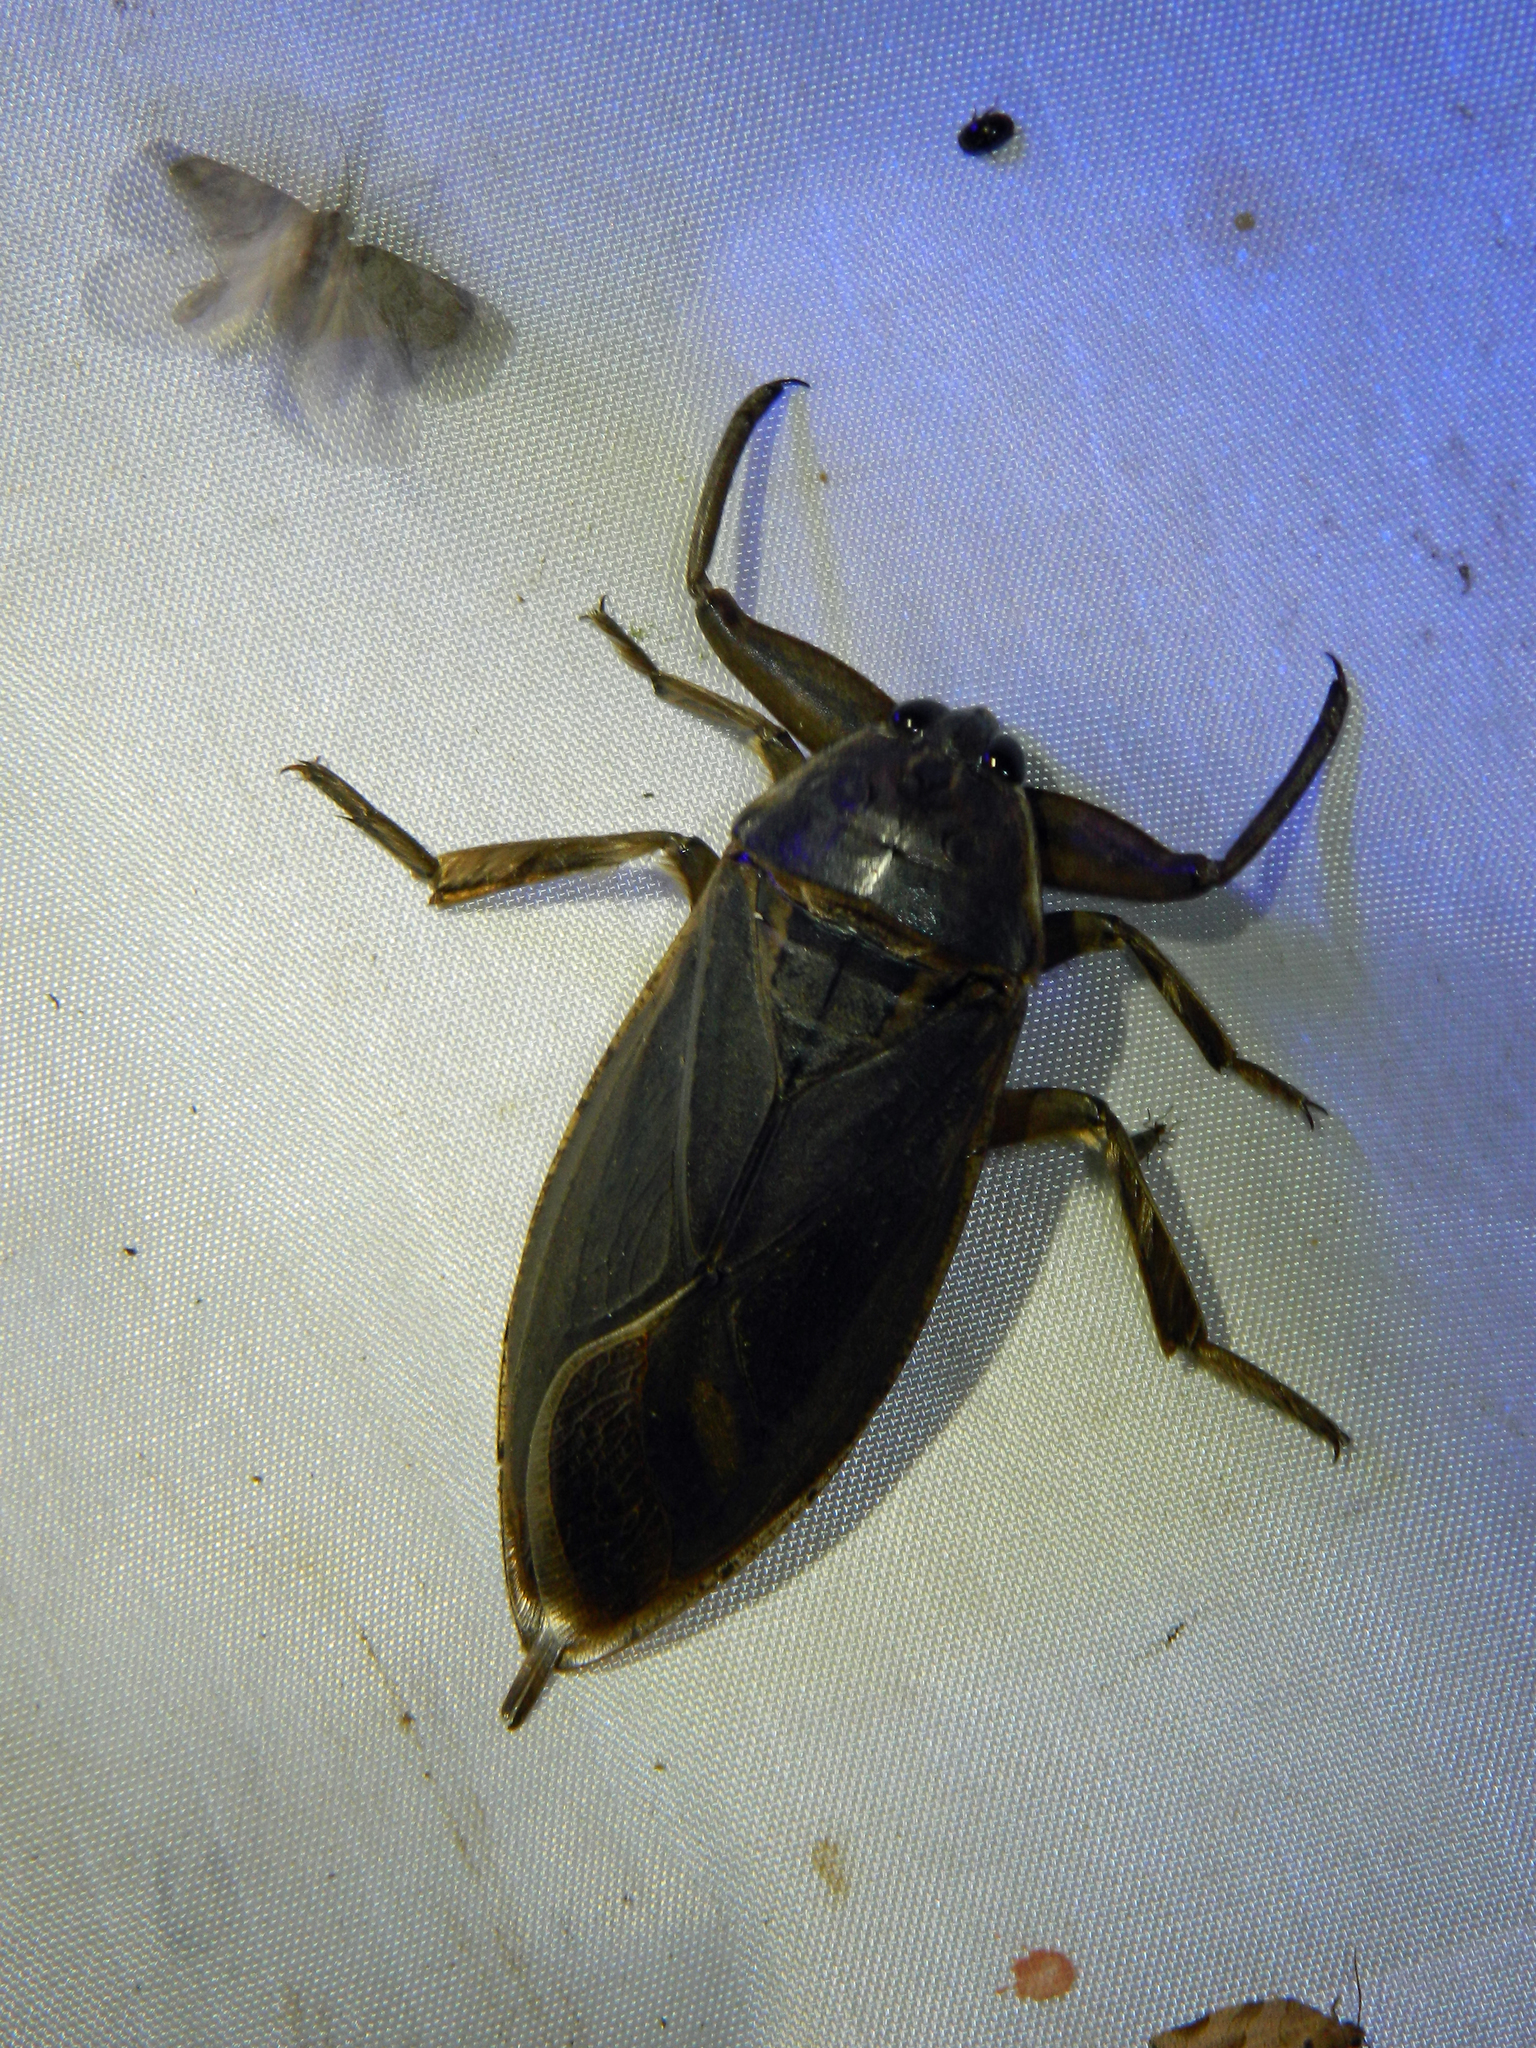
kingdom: Animalia
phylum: Arthropoda
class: Insecta
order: Hemiptera
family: Belostomatidae
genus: Lethocerus
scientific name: Lethocerus americanus
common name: Giant water bug
